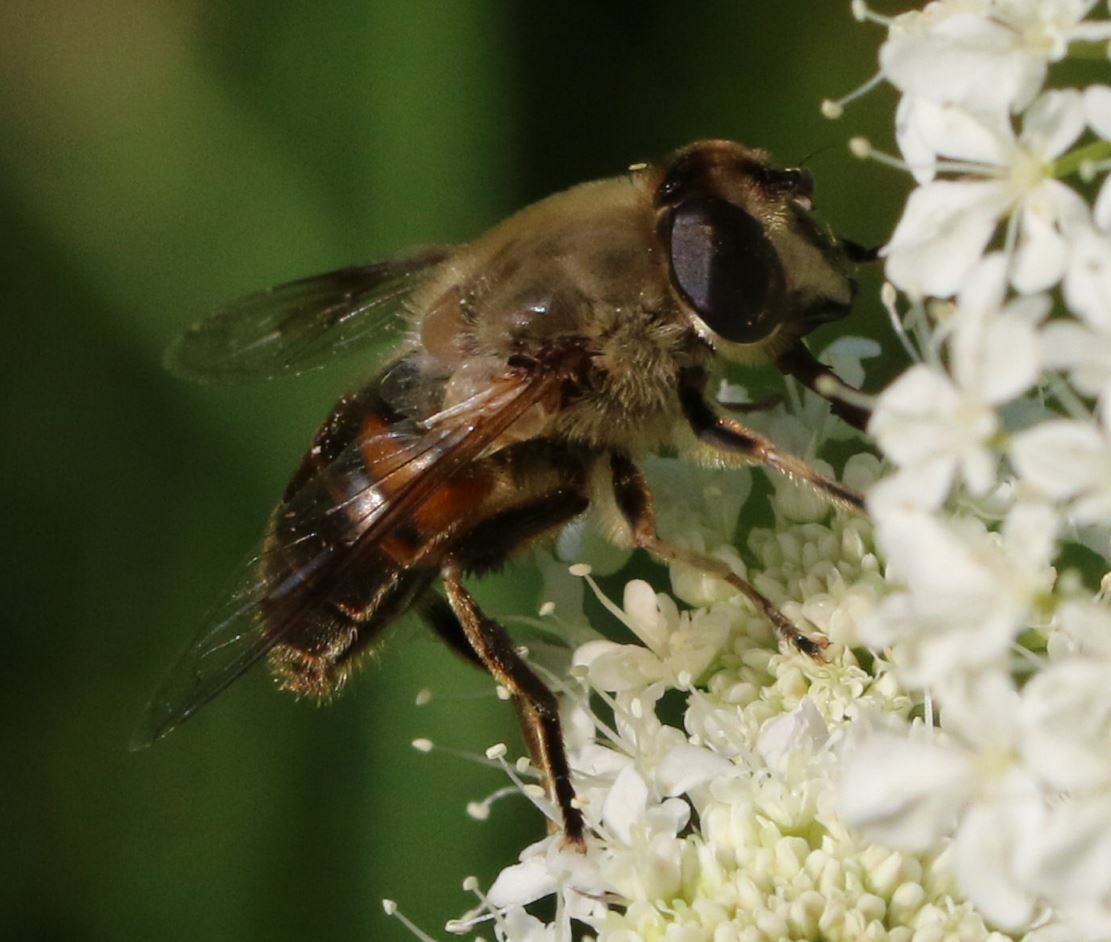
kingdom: Animalia
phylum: Arthropoda
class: Insecta
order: Diptera
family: Syrphidae
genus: Eristalis
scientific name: Eristalis tenax
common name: Drone fly
